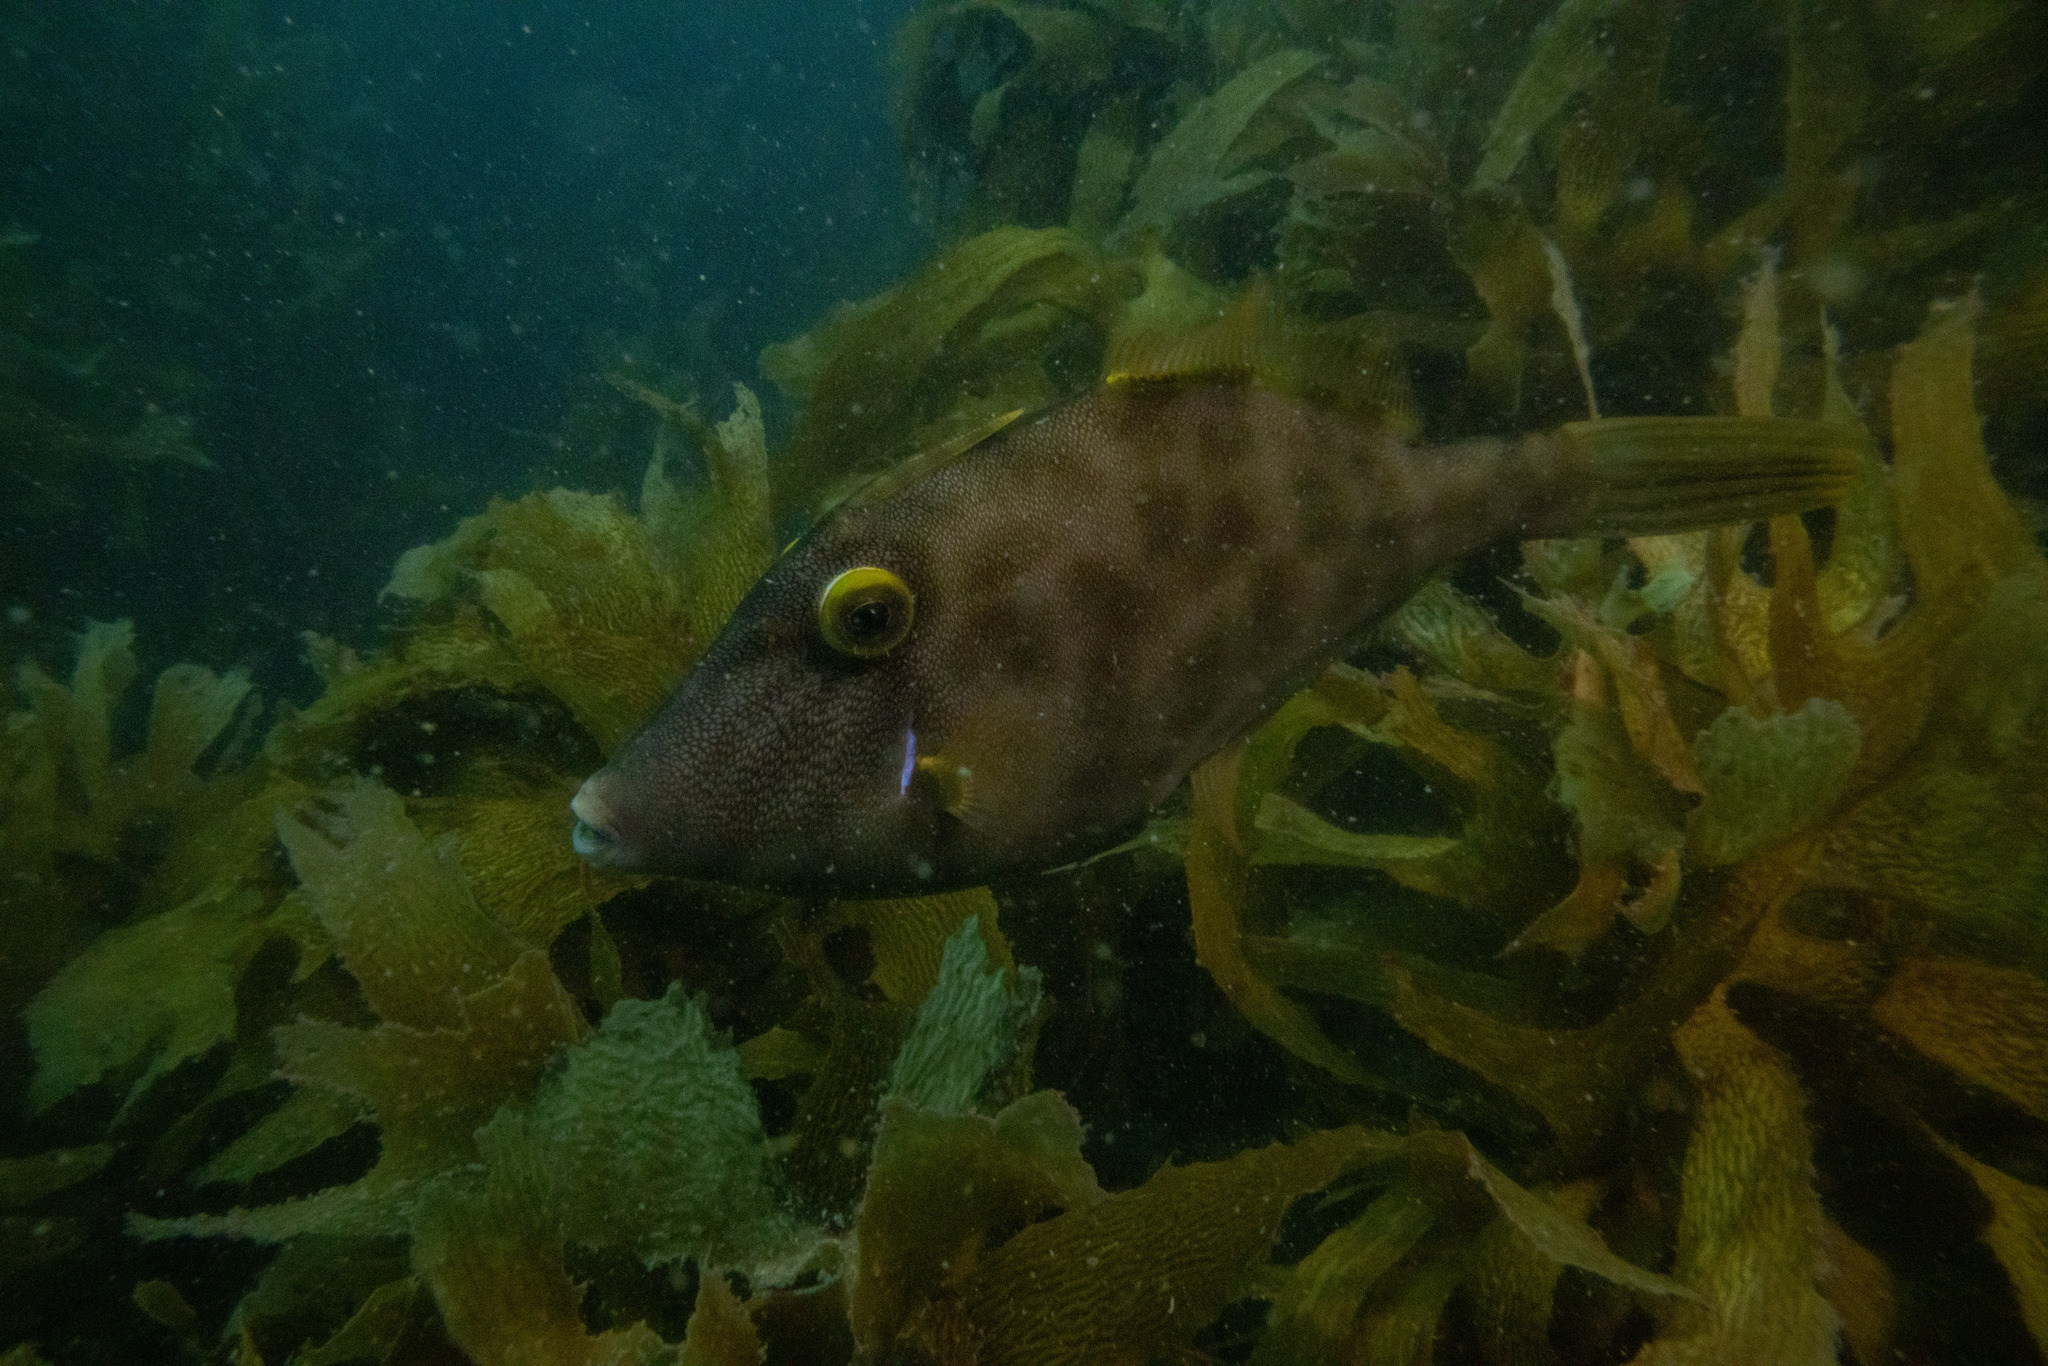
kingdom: Animalia
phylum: Chordata
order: Tetraodontiformes
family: Monacanthidae
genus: Meuschenia
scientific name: Meuschenia scaber
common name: Cosmopolitan leatherjacket
